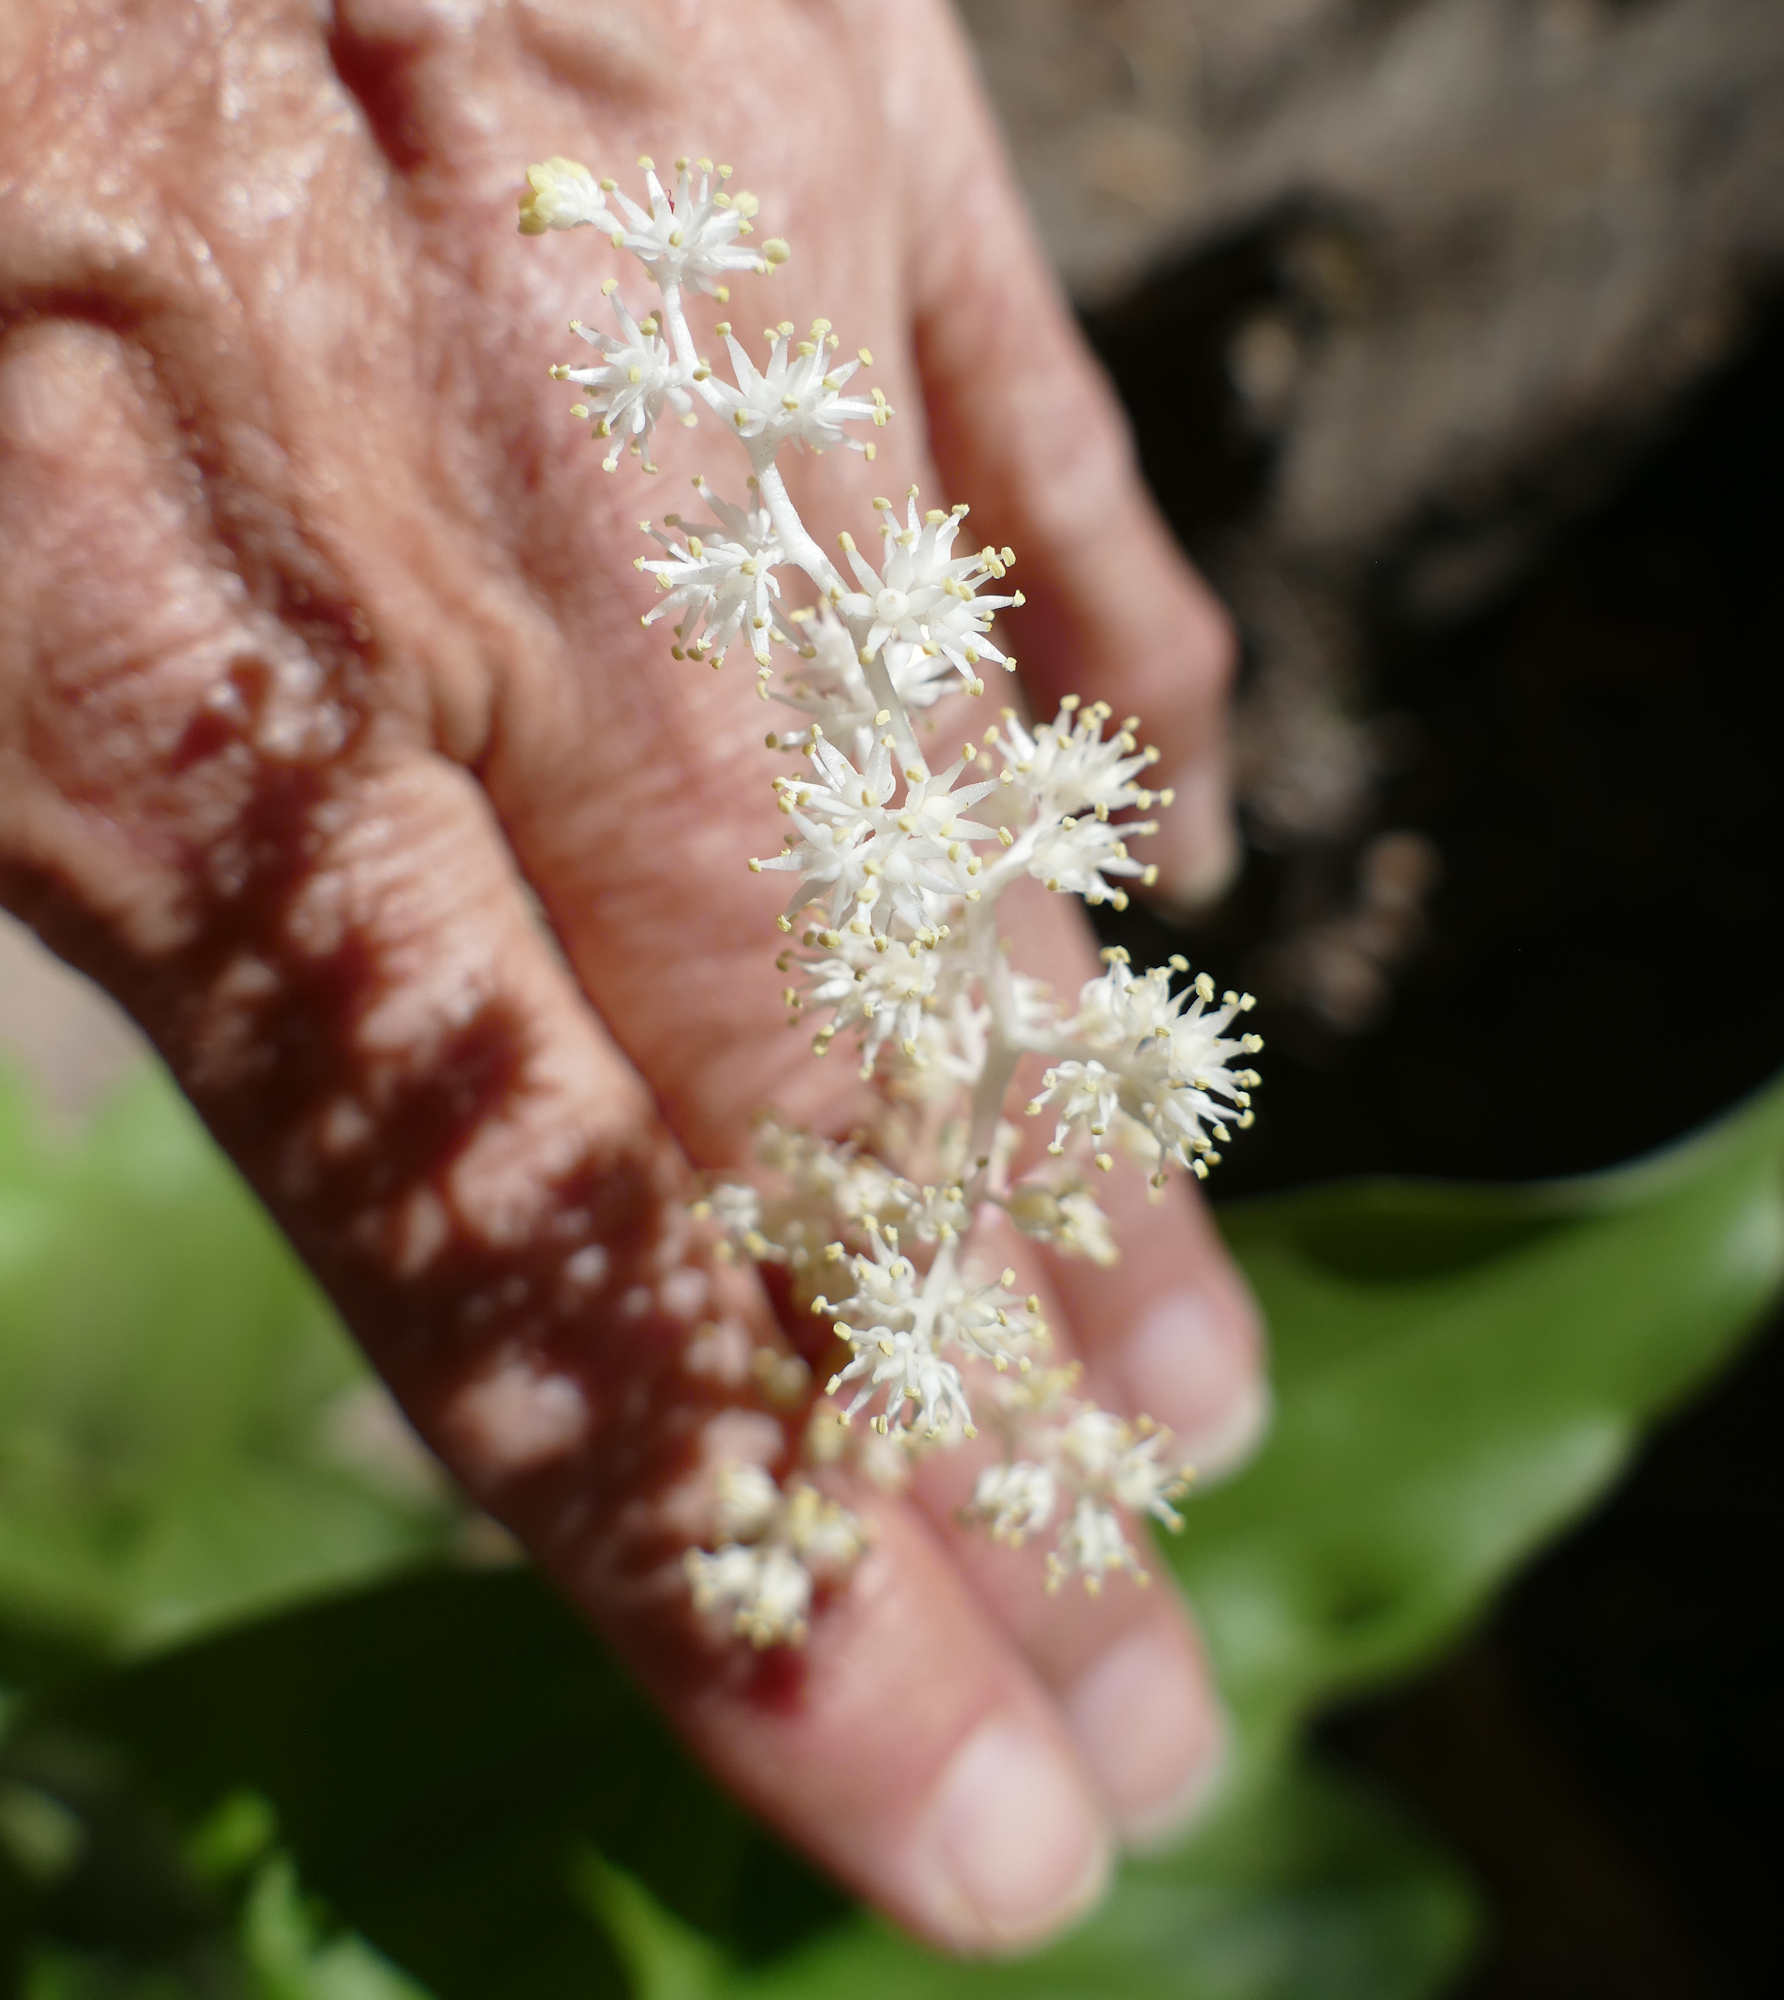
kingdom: Plantae
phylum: Tracheophyta
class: Liliopsida
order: Asparagales
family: Asparagaceae
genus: Maianthemum
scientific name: Maianthemum racemosum
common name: False spikenard
